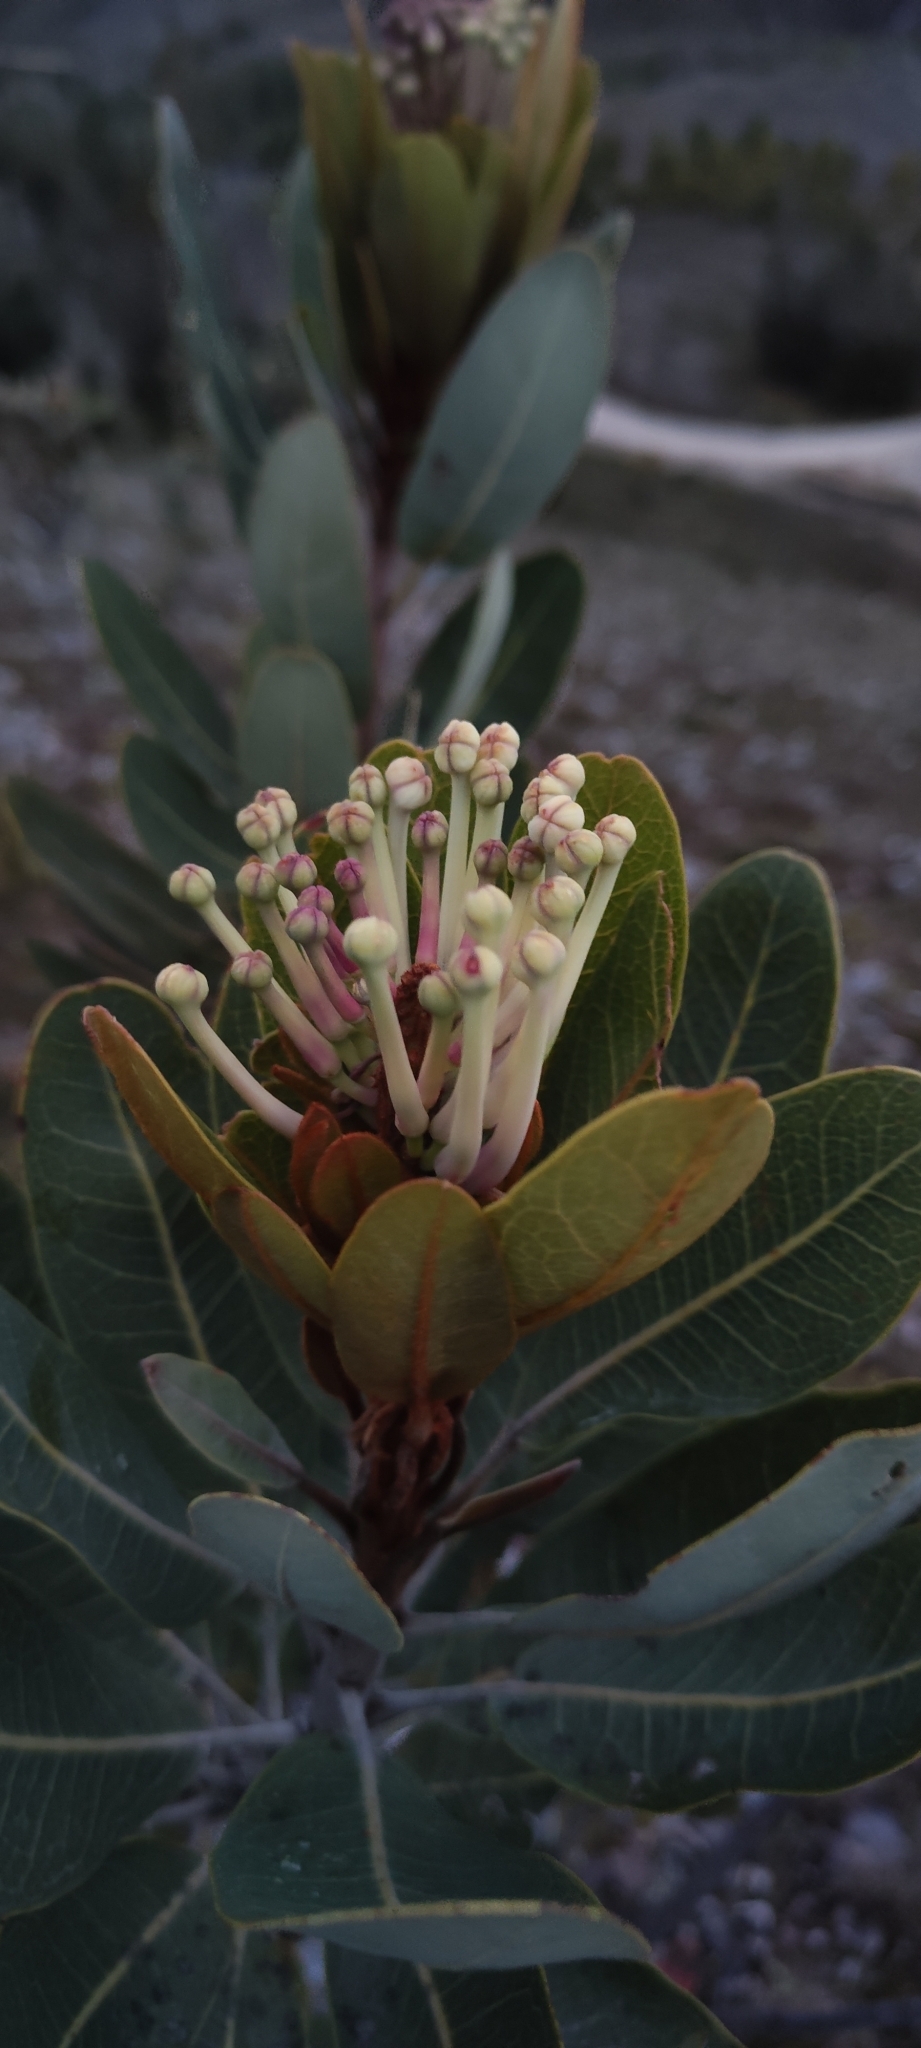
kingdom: Plantae
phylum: Tracheophyta
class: Magnoliopsida
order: Proteales
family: Proteaceae
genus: Oreocallis
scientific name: Oreocallis grandiflora
